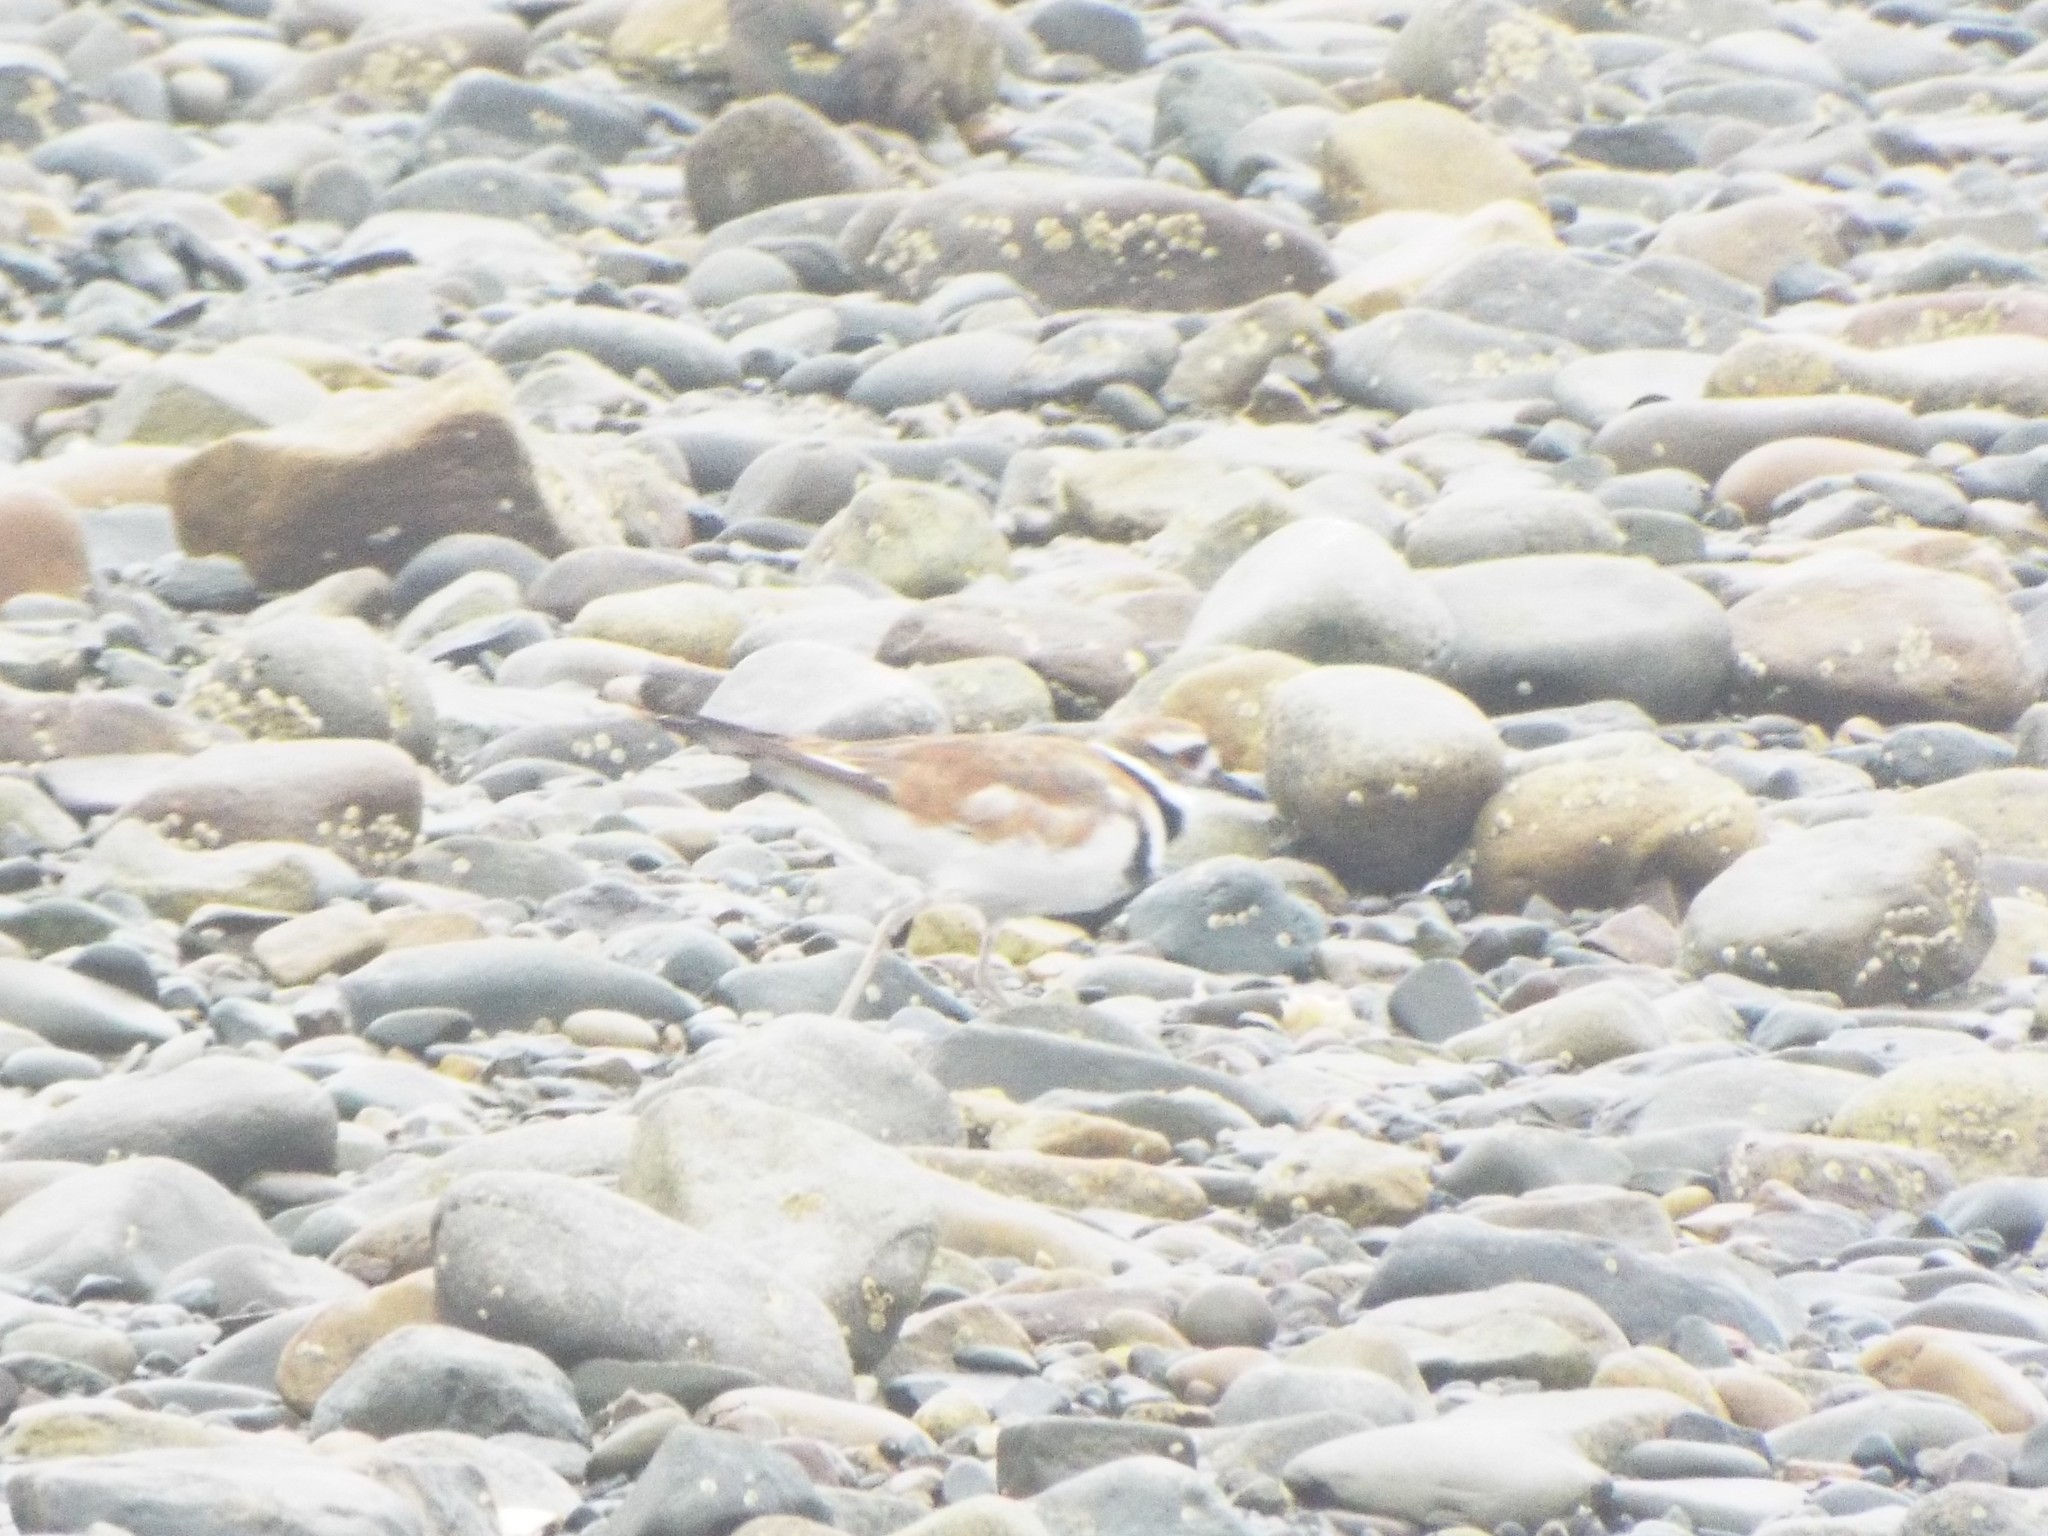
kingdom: Animalia
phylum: Chordata
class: Aves
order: Charadriiformes
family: Charadriidae
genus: Charadrius
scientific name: Charadrius vociferus
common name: Killdeer
